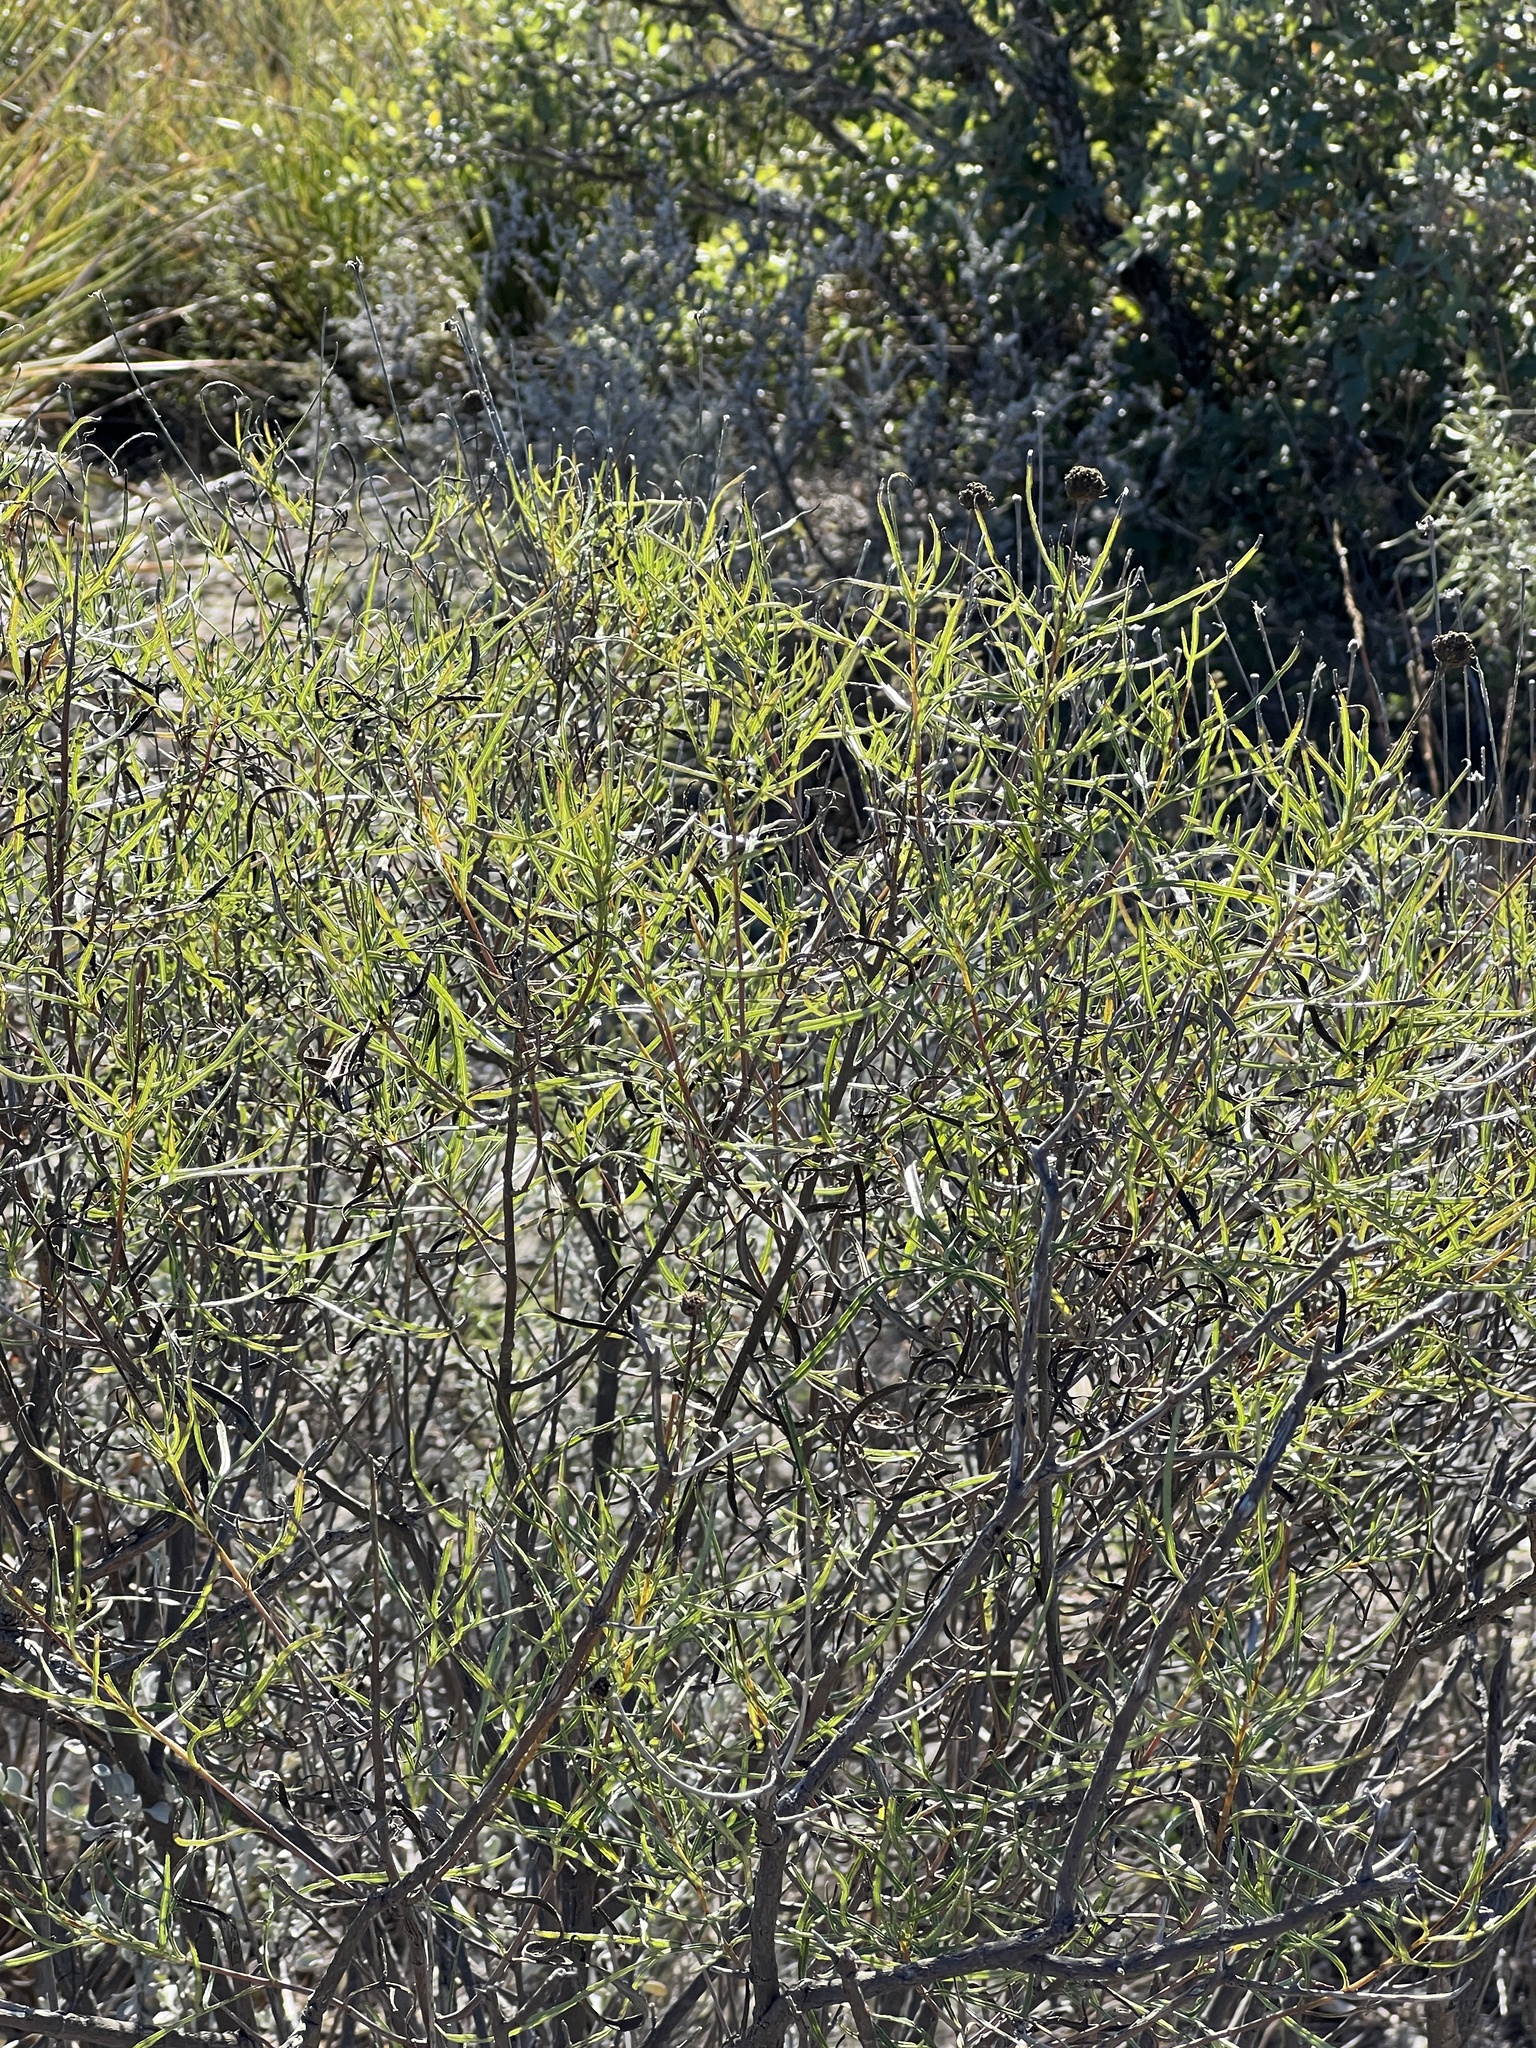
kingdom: Plantae
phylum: Tracheophyta
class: Magnoliopsida
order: Asterales
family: Asteraceae
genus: Sidneya
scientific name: Sidneya tenuifolia
